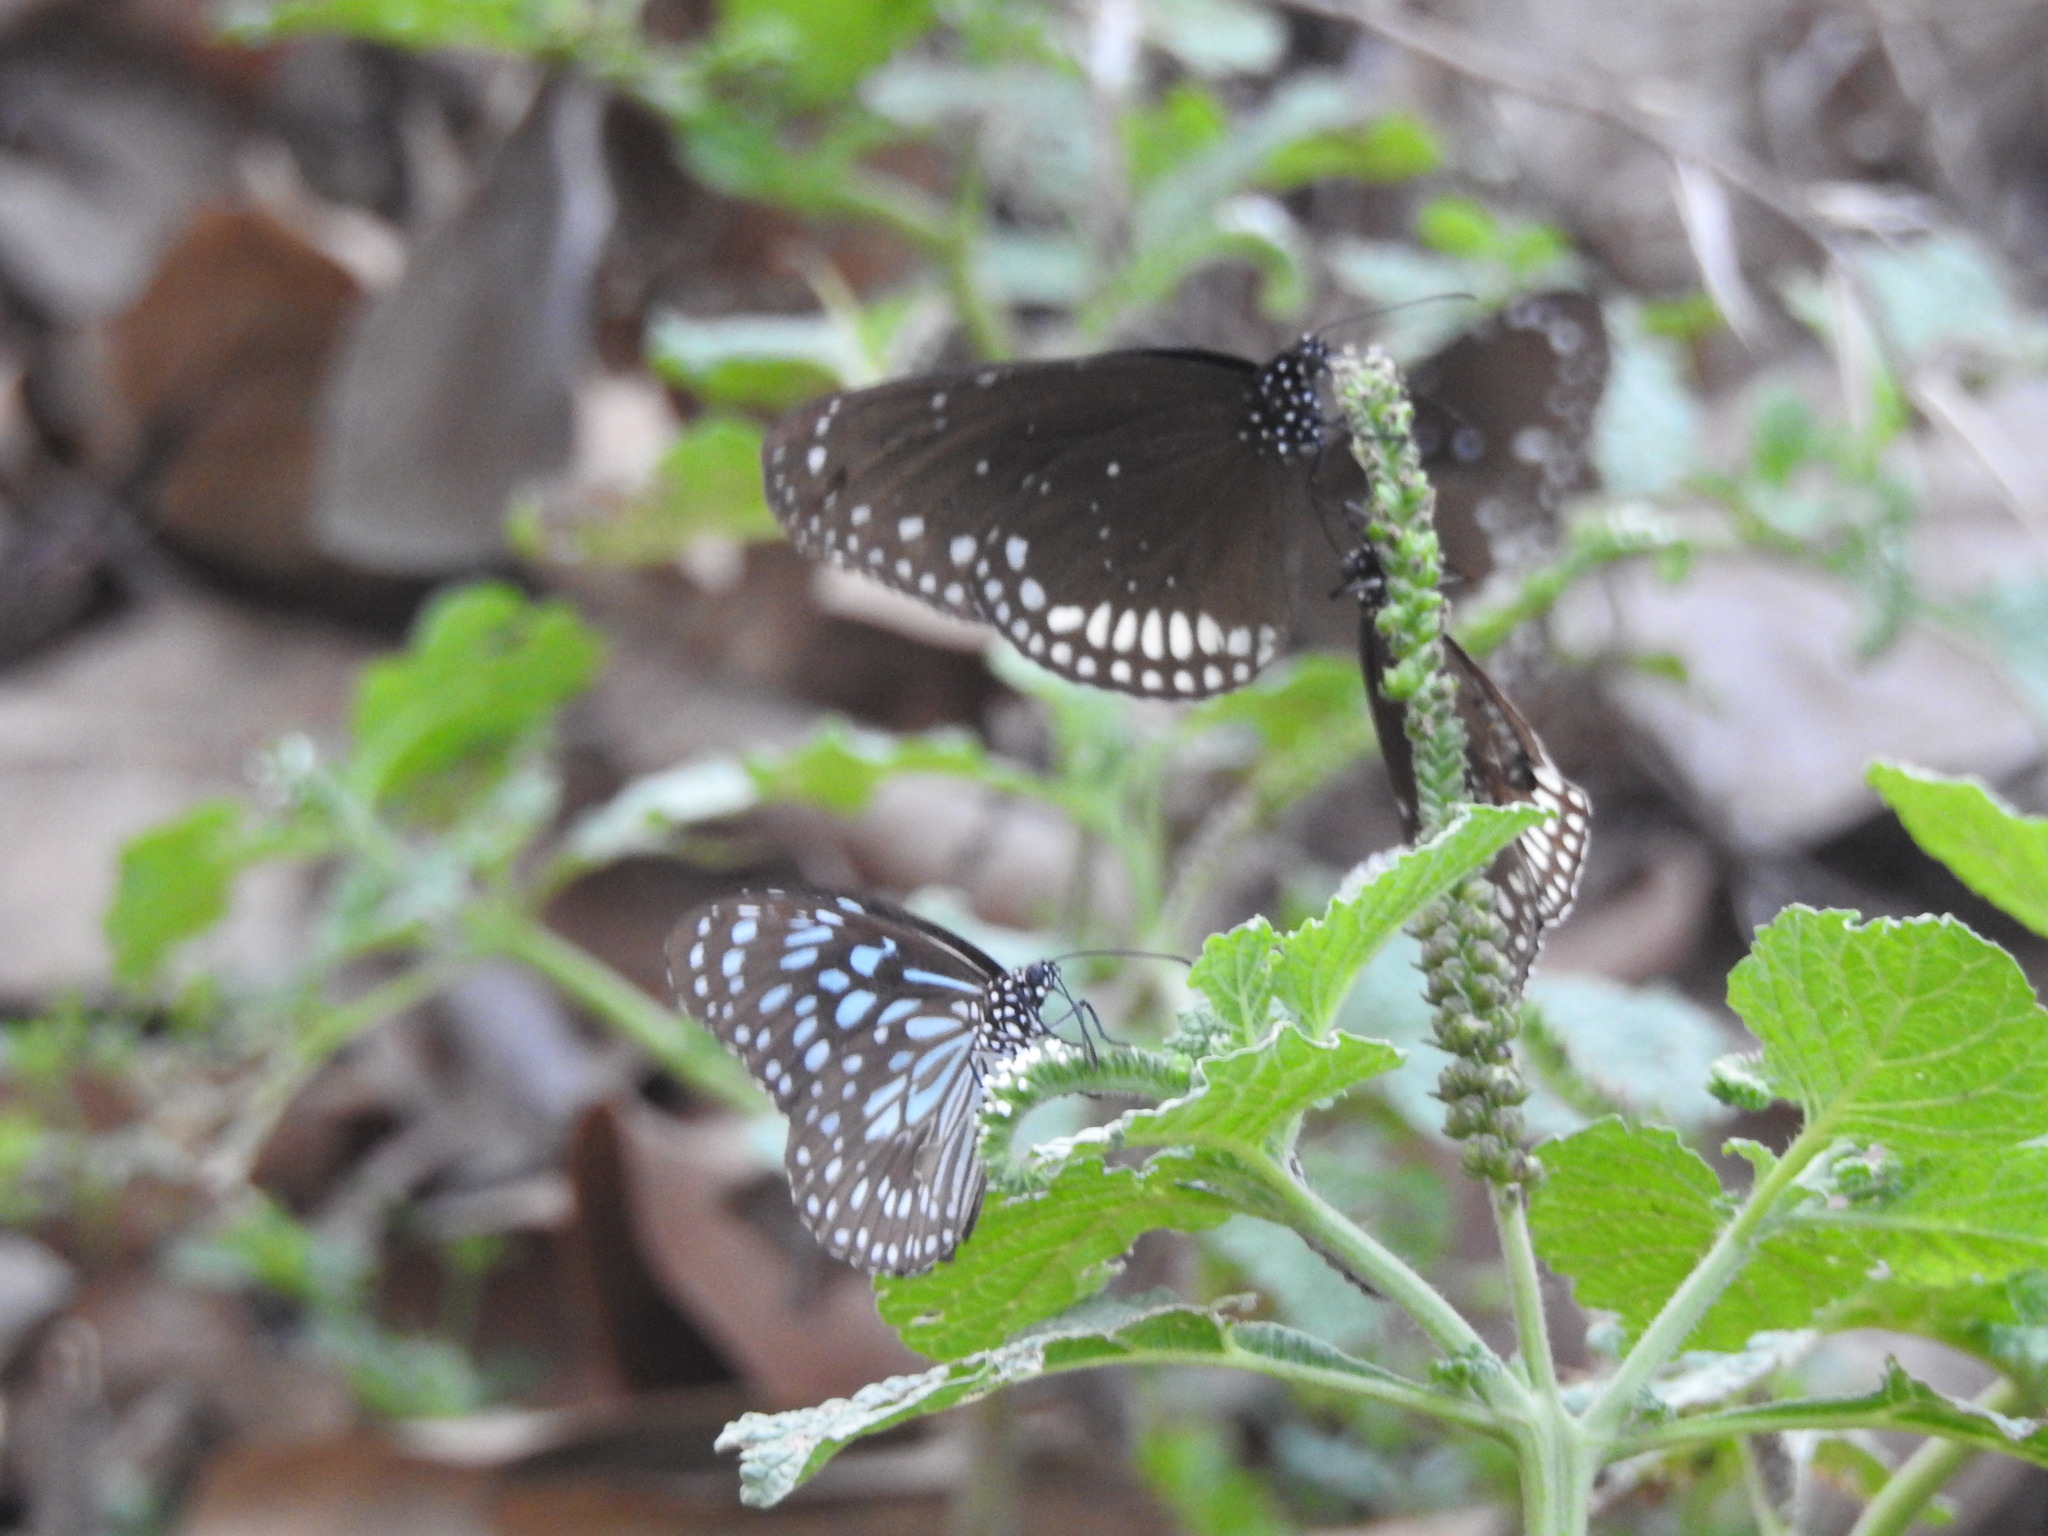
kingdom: Animalia
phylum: Arthropoda
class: Insecta
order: Lepidoptera
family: Nymphalidae
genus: Euploea
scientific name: Euploea sylvester
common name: Double-branded crow butterfly
